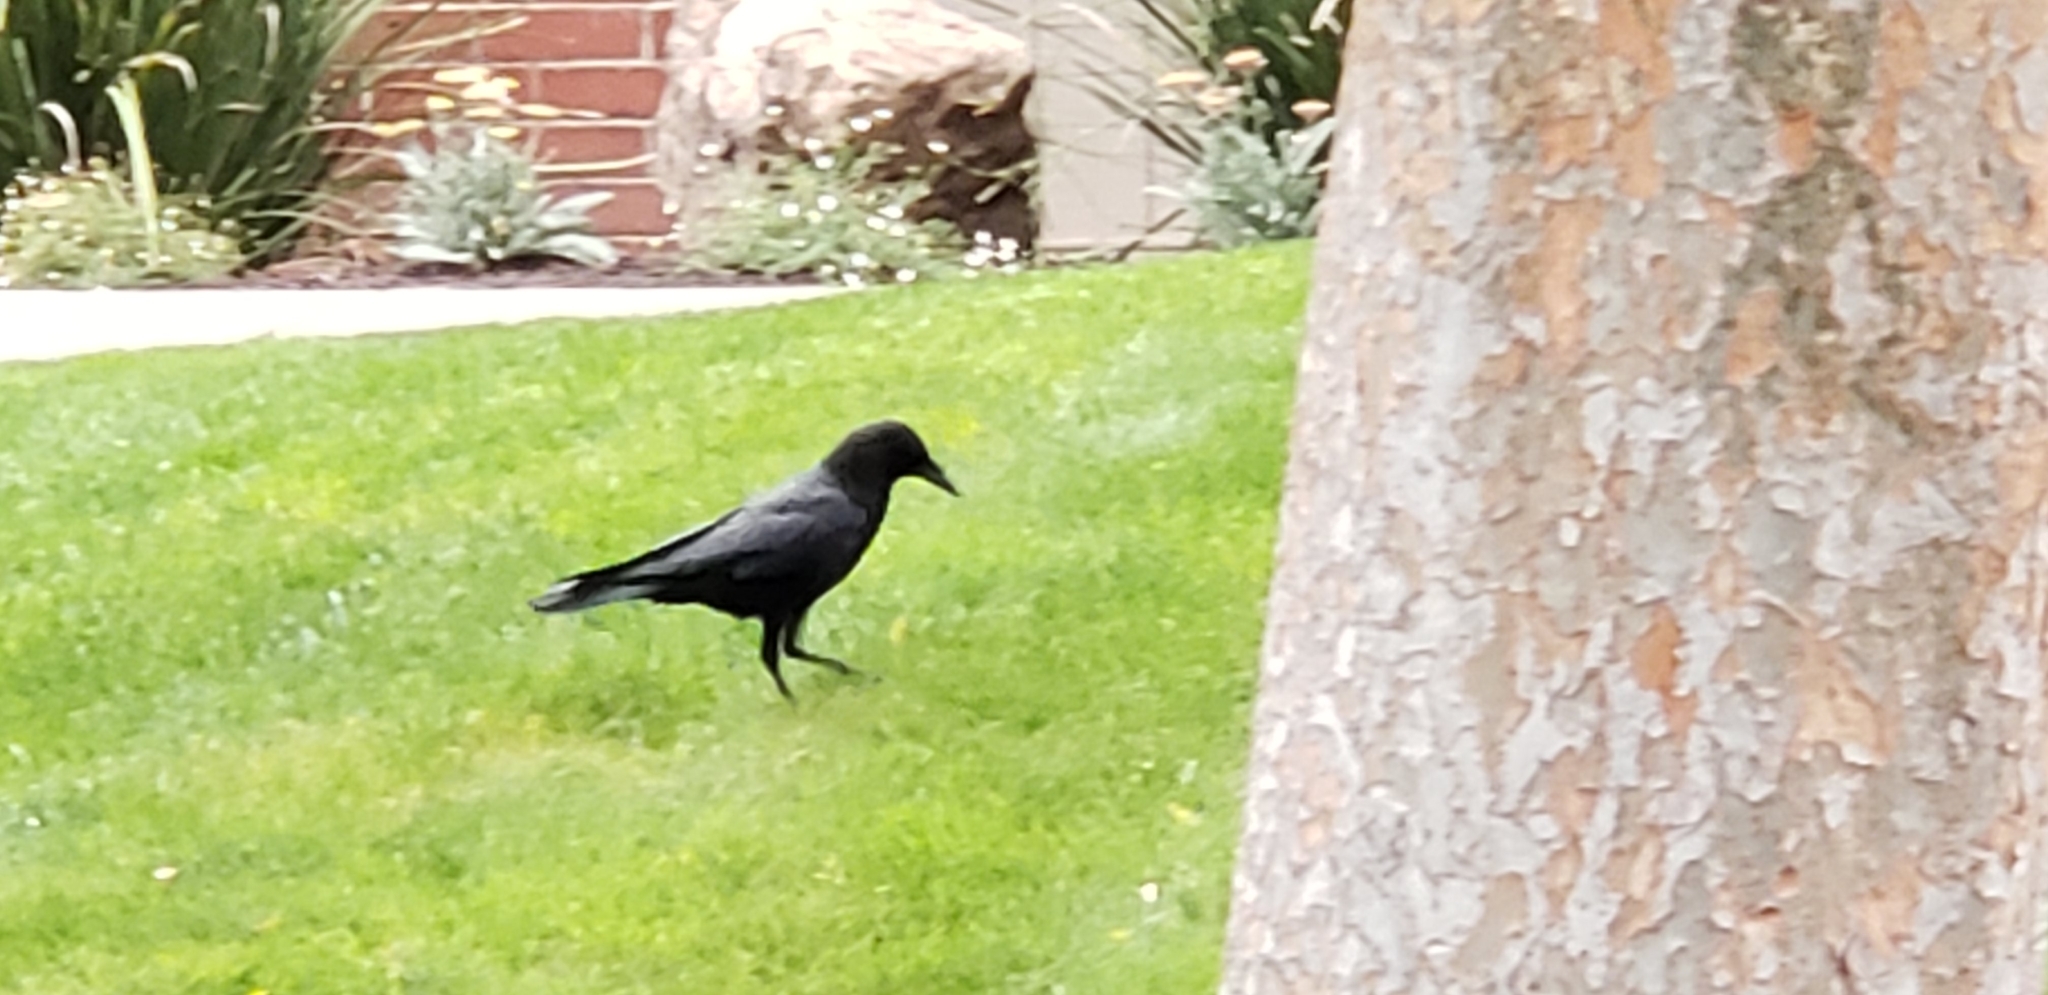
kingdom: Animalia
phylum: Chordata
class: Aves
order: Passeriformes
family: Corvidae
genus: Corvus
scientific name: Corvus brachyrhynchos
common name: American crow
